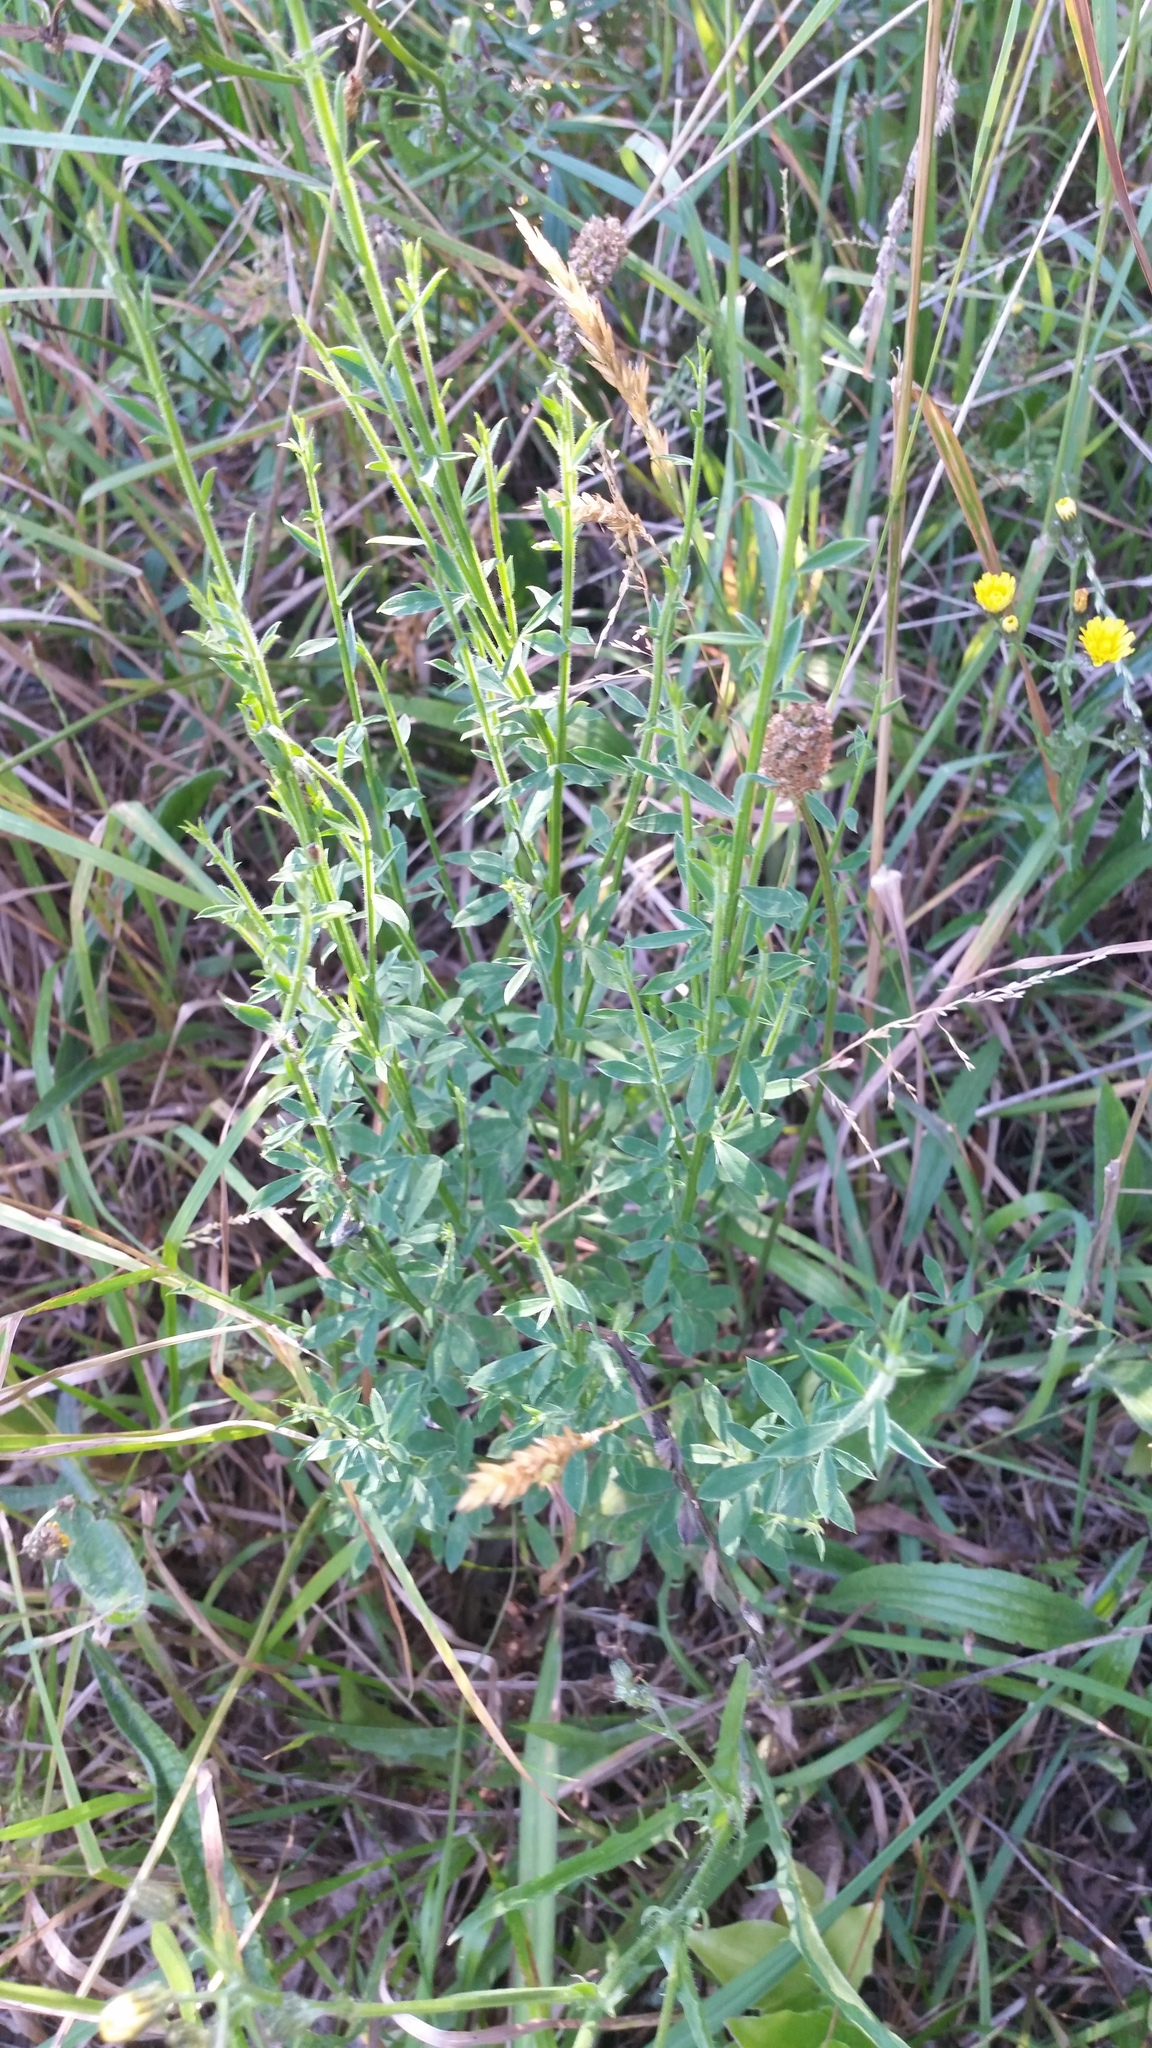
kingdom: Plantae
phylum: Tracheophyta
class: Magnoliopsida
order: Fabales
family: Fabaceae
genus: Cytisus
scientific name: Cytisus scoparius
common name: Scotch broom
